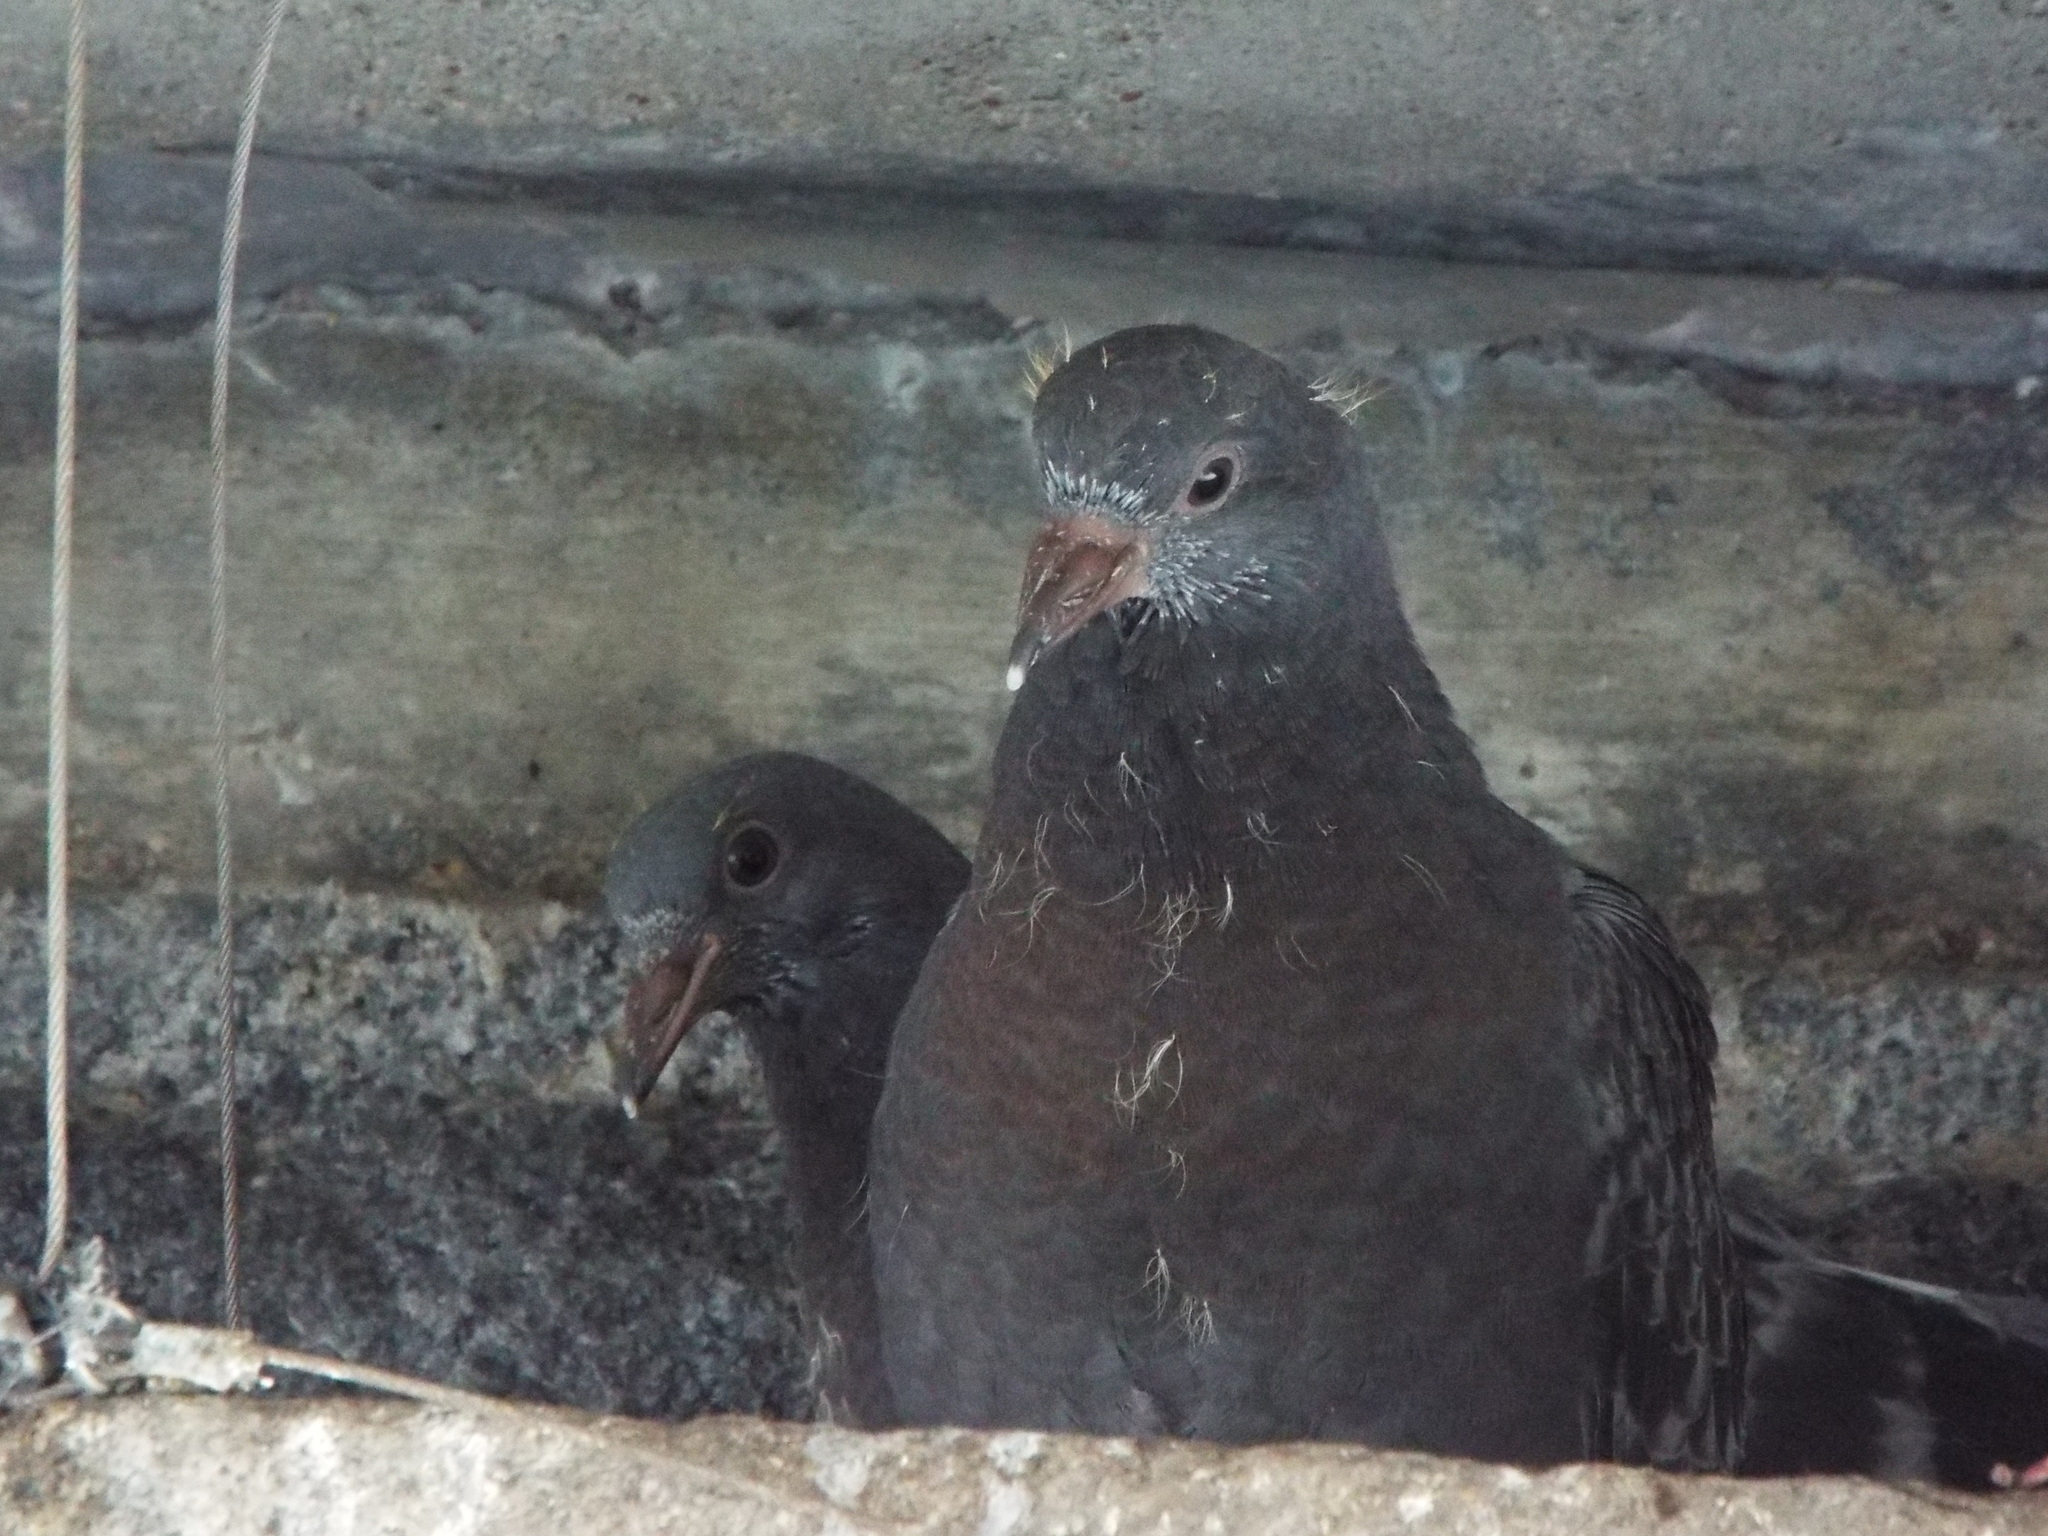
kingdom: Animalia
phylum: Chordata
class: Aves
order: Columbiformes
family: Columbidae
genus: Columba
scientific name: Columba livia
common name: Rock pigeon
